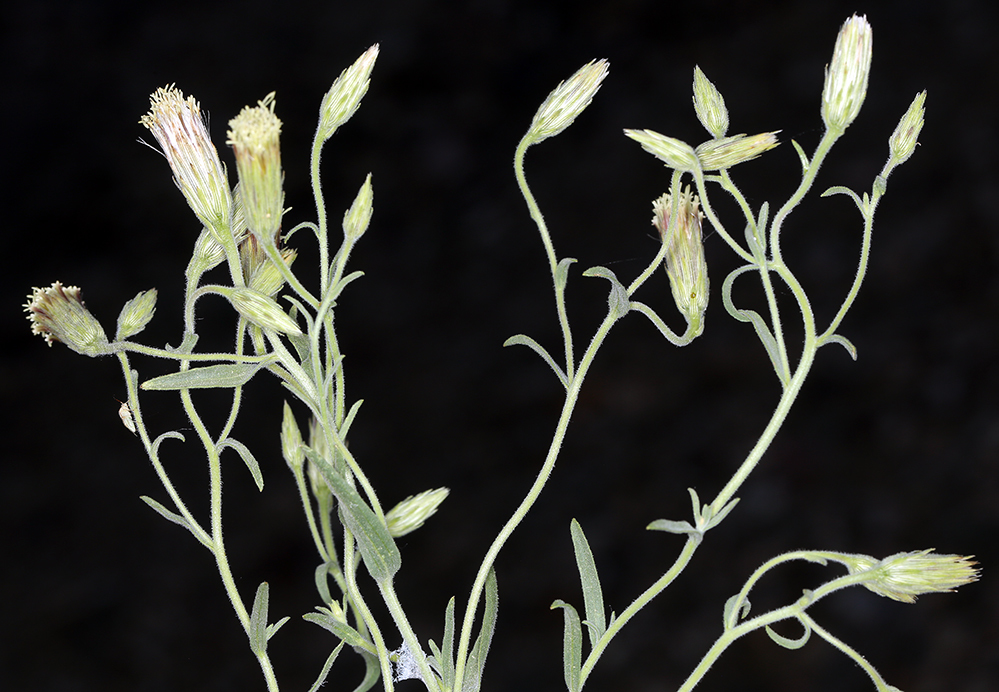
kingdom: Plantae
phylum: Tracheophyta
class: Magnoliopsida
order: Asterales
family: Asteraceae
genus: Brickellia
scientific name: Brickellia oblongifolia
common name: Mojave brickellbush
